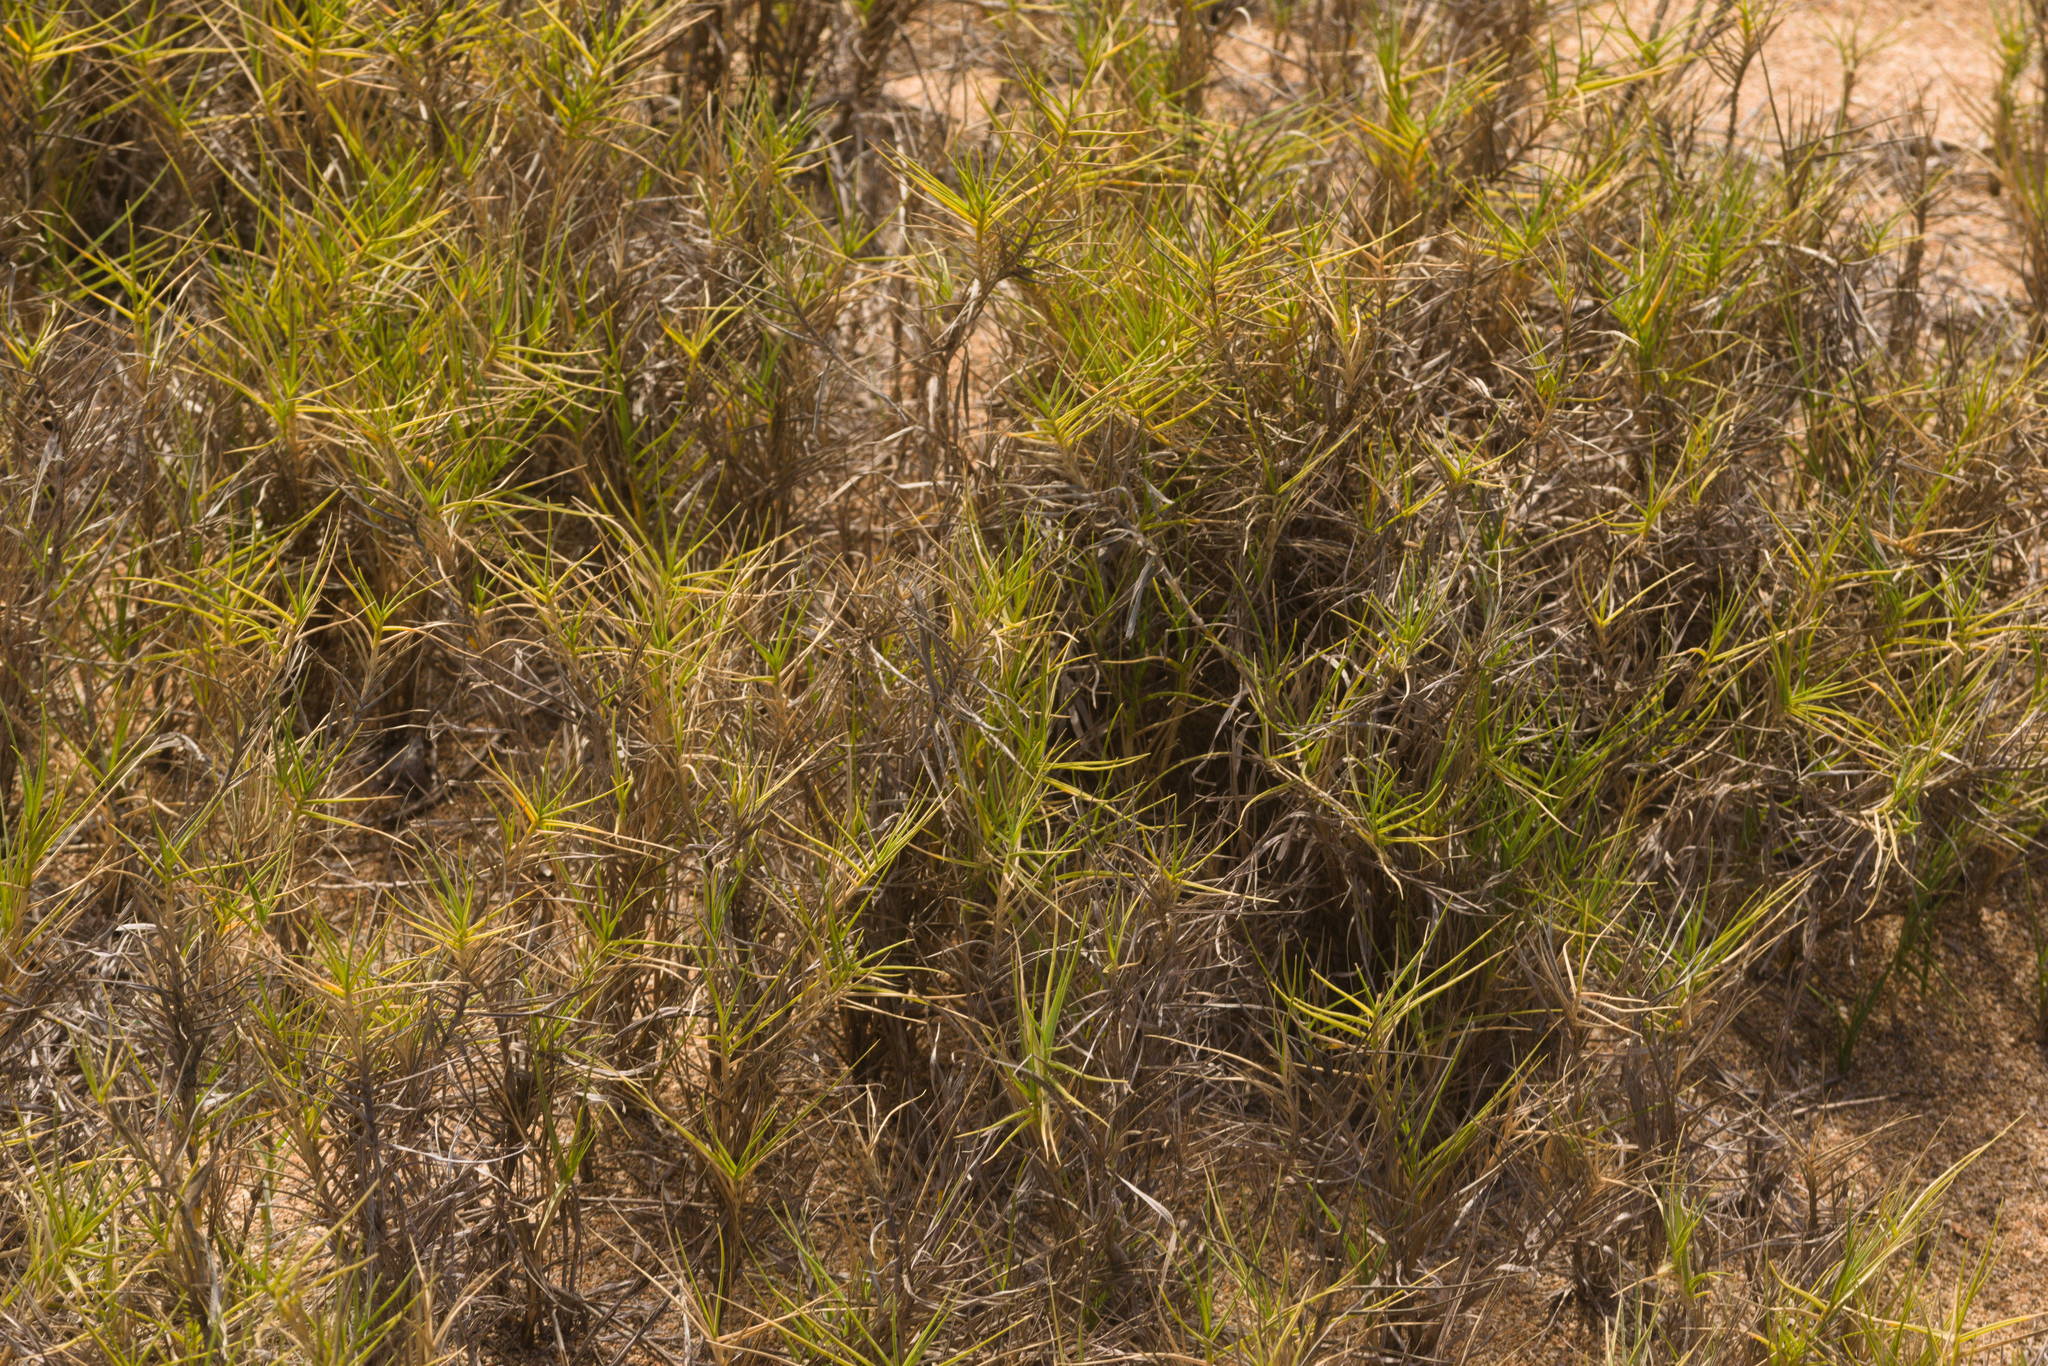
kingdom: Plantae
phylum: Tracheophyta
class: Liliopsida
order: Poales
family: Poaceae
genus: Sporobolus
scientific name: Sporobolus virginicus
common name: Beach dropseed
